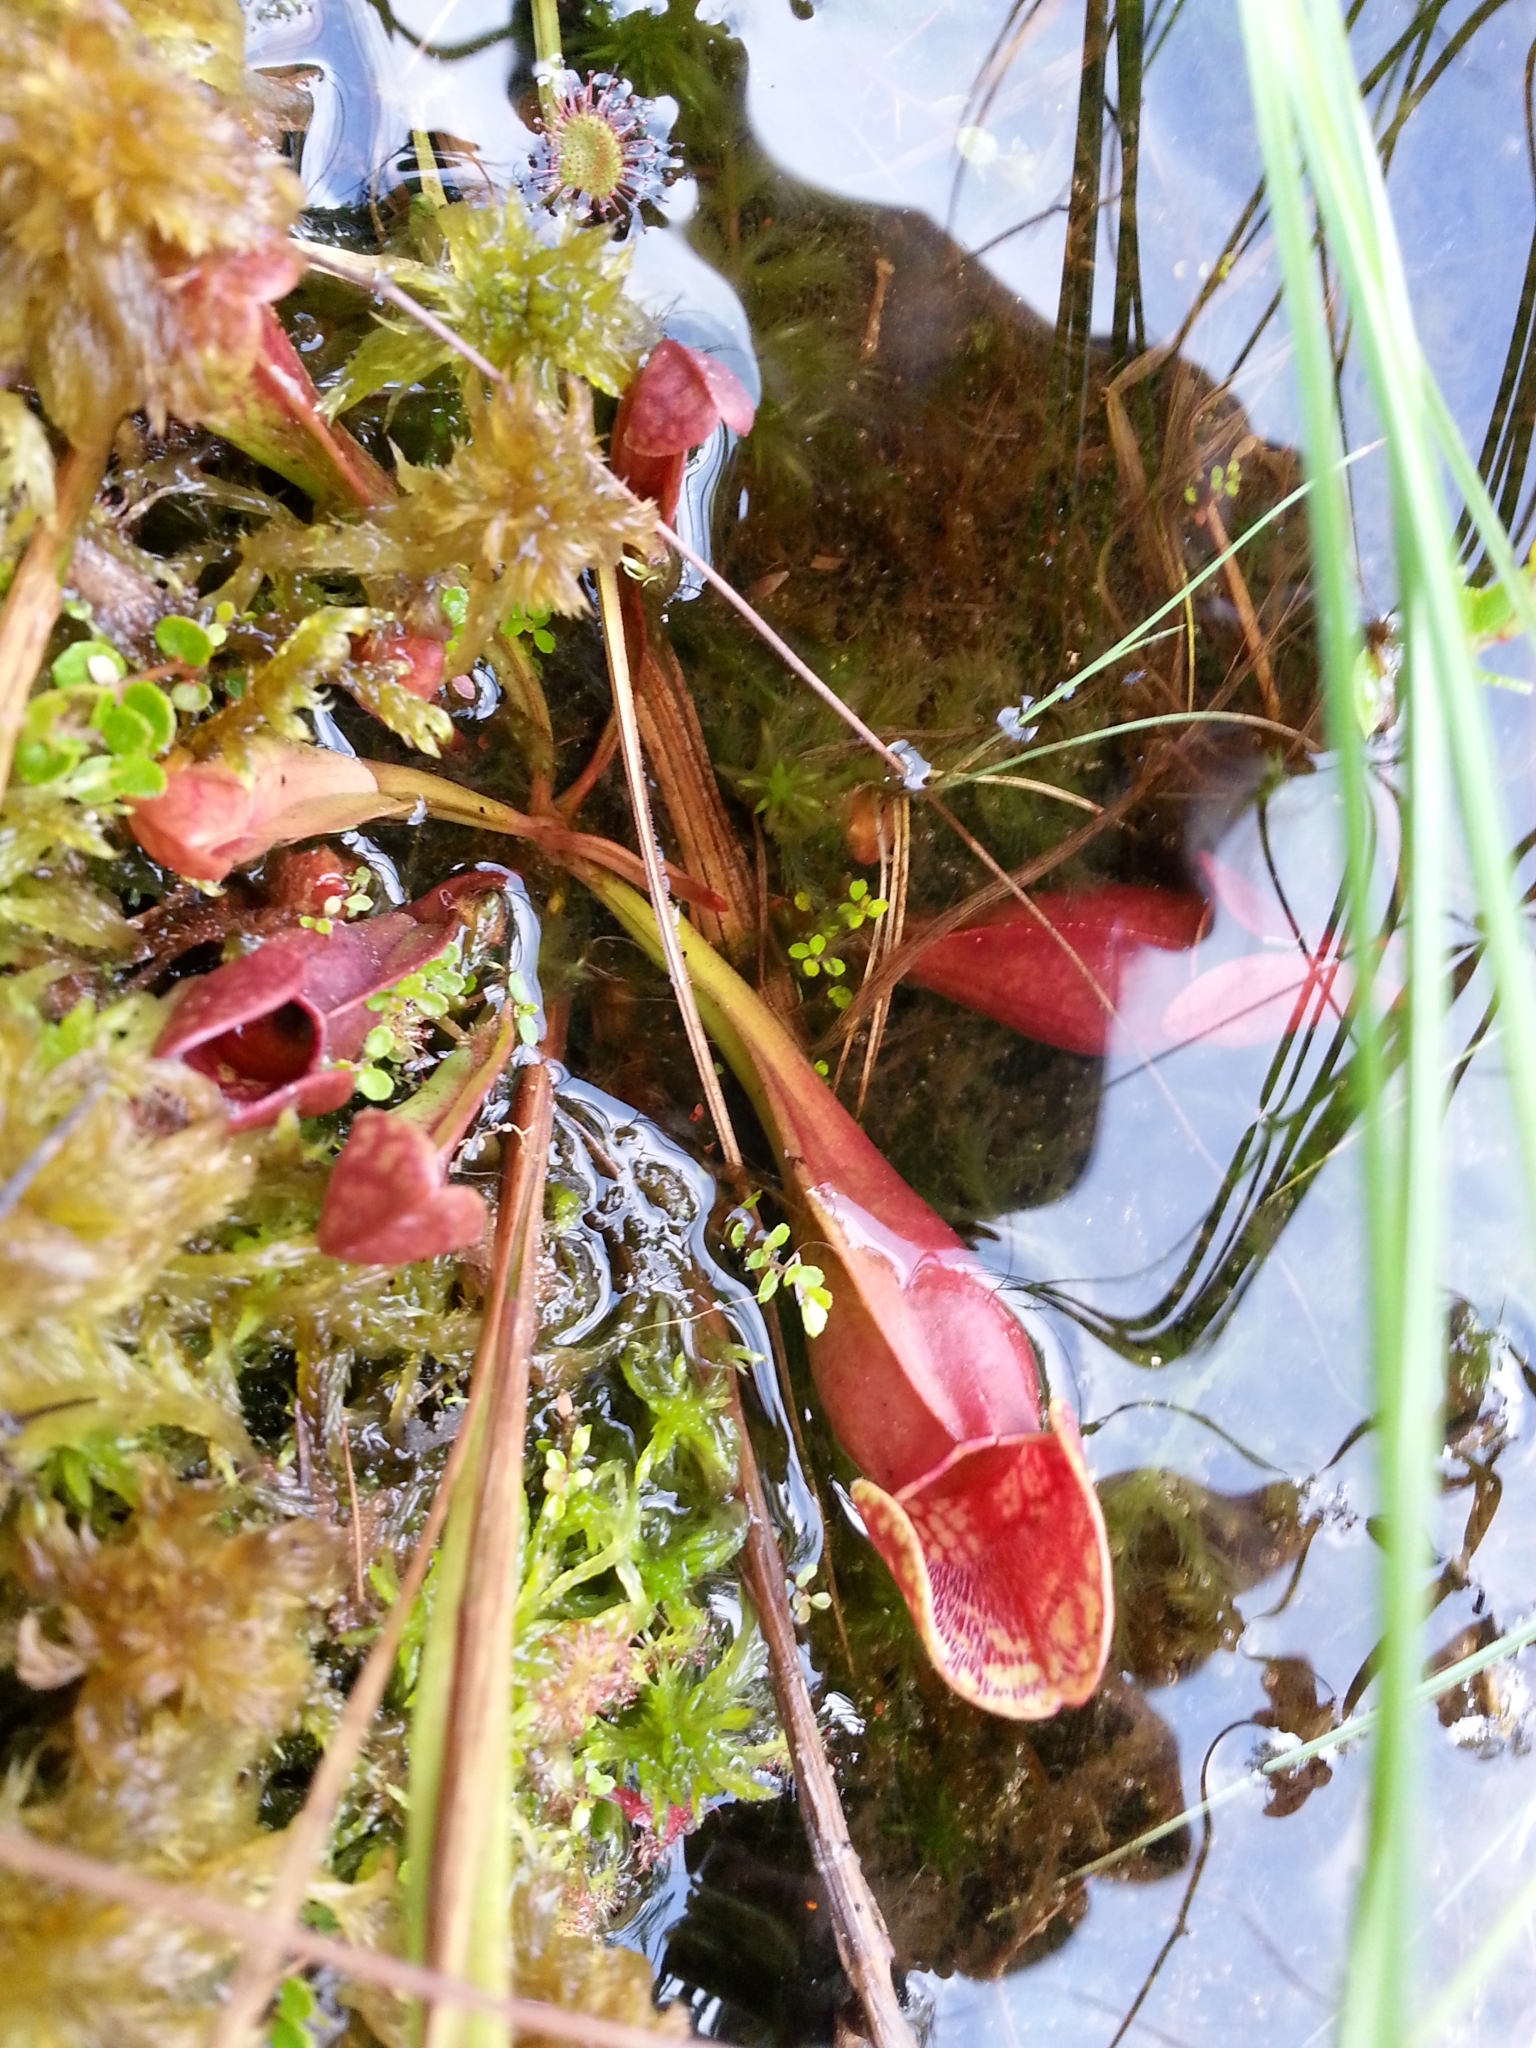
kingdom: Plantae
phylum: Tracheophyta
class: Magnoliopsida
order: Ericales
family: Sarraceniaceae
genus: Sarracenia
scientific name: Sarracenia purpurea
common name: Pitcherplant
